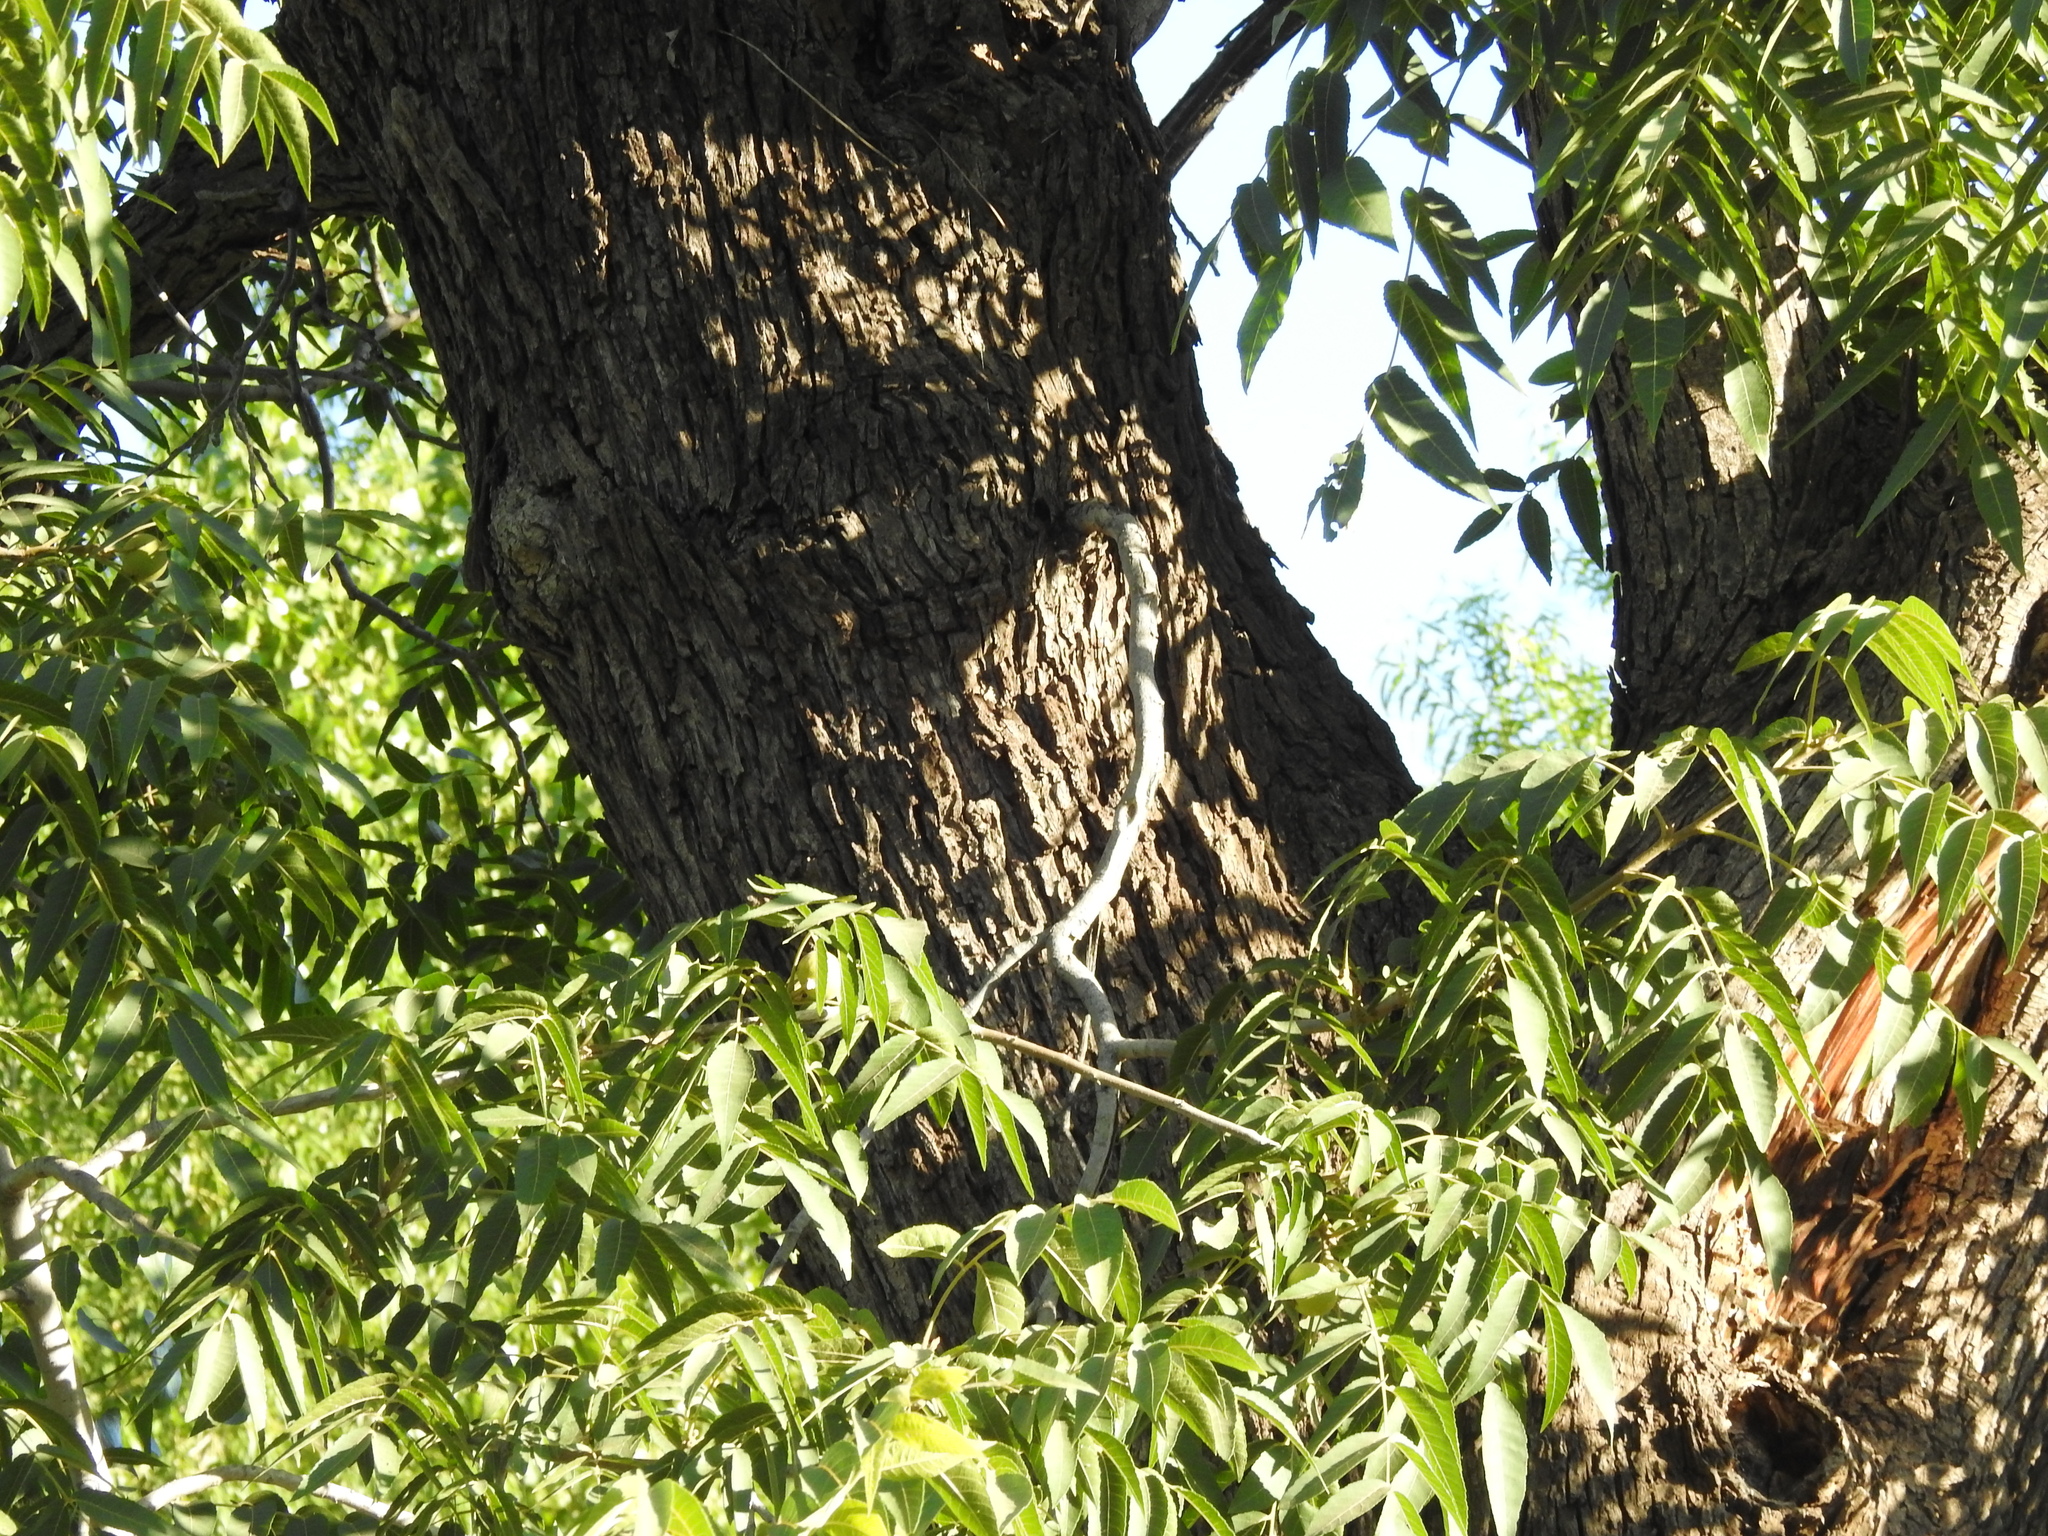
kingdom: Plantae
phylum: Tracheophyta
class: Magnoliopsida
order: Fagales
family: Juglandaceae
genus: Juglans
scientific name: Juglans major
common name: Arizona walnut
